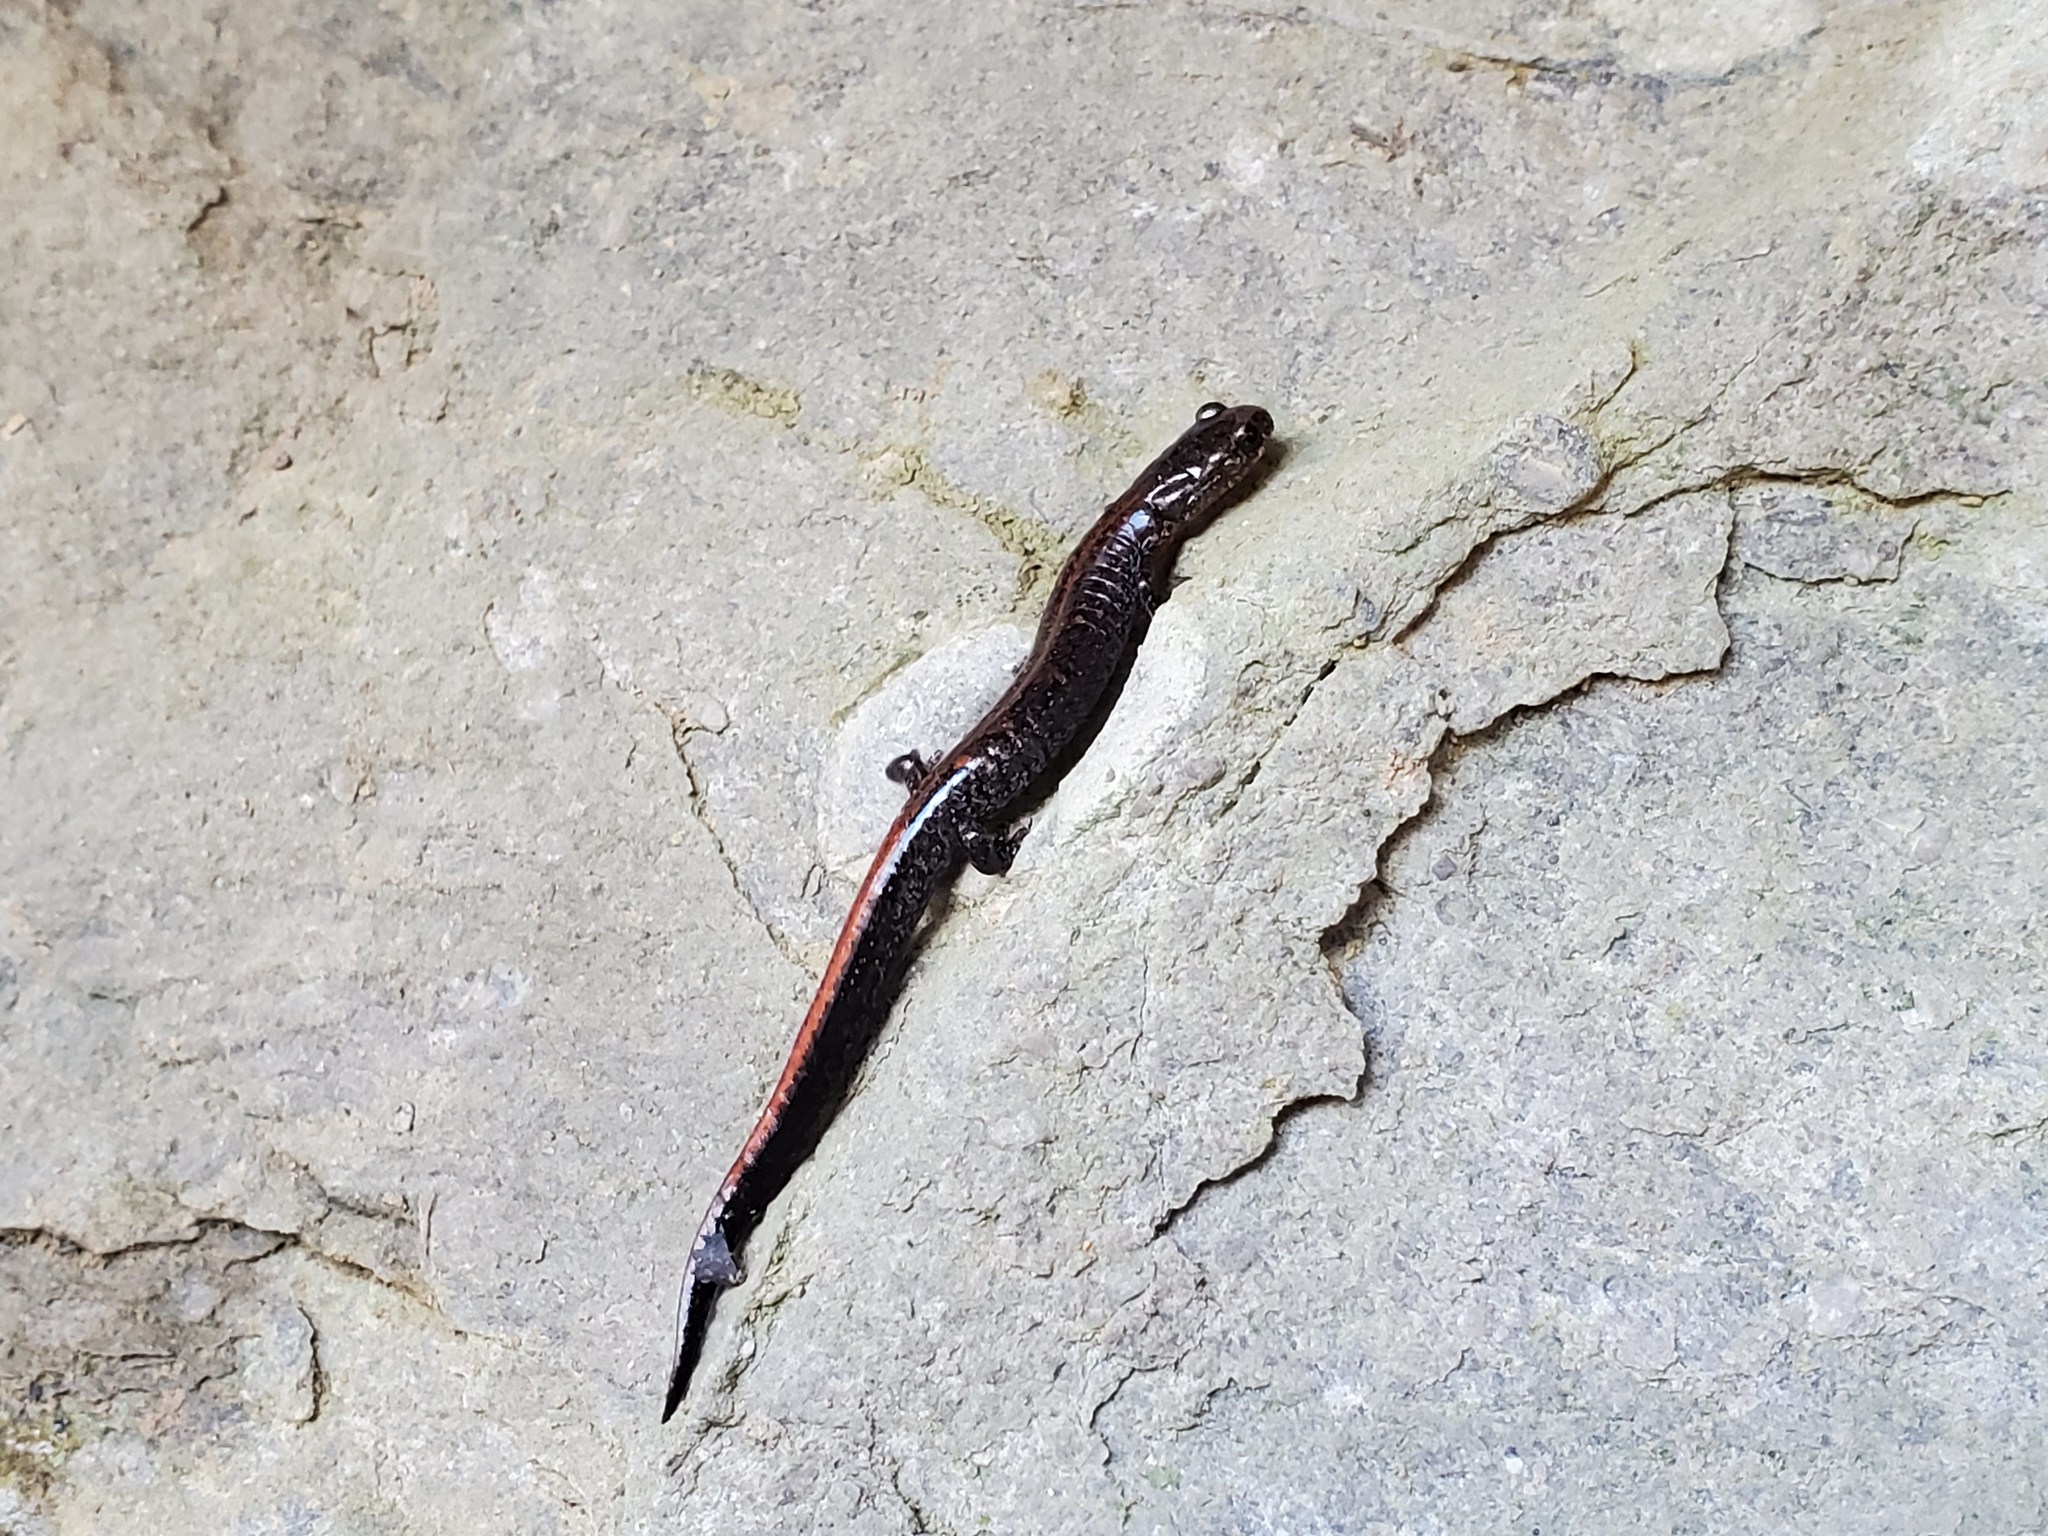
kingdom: Animalia
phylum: Chordata
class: Amphibia
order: Caudata
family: Plethodontidae
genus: Plethodon
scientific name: Plethodon dorsalis
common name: Northern zigzag salamander
